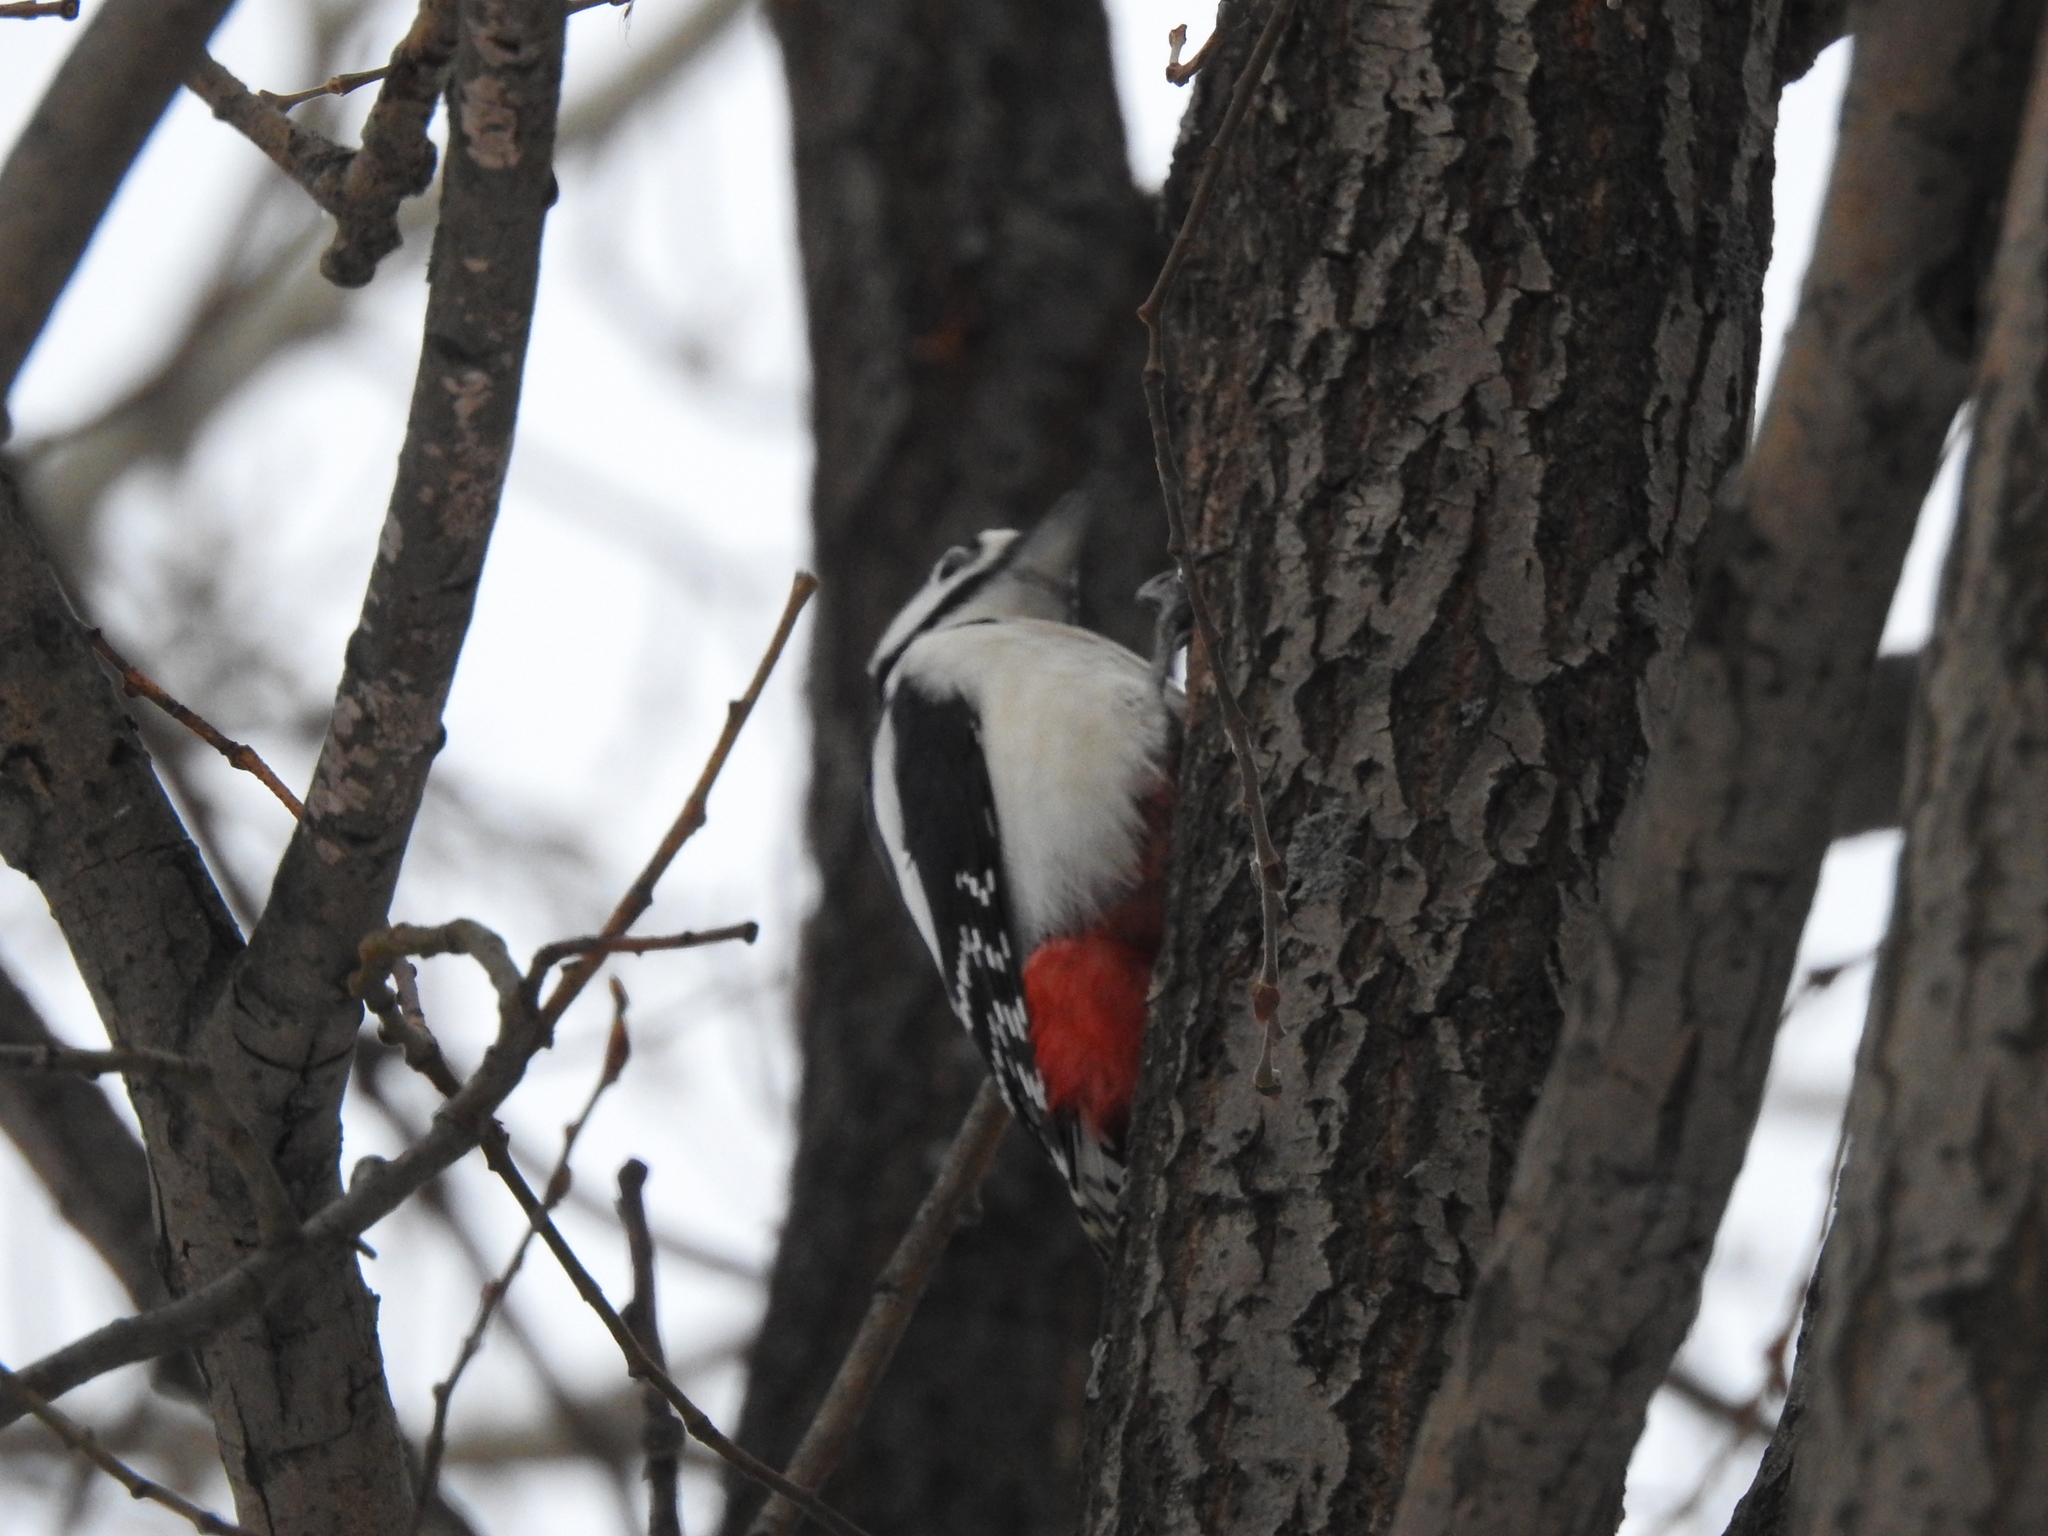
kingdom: Animalia
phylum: Chordata
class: Aves
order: Piciformes
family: Picidae
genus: Dendrocopos
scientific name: Dendrocopos major
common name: Great spotted woodpecker
